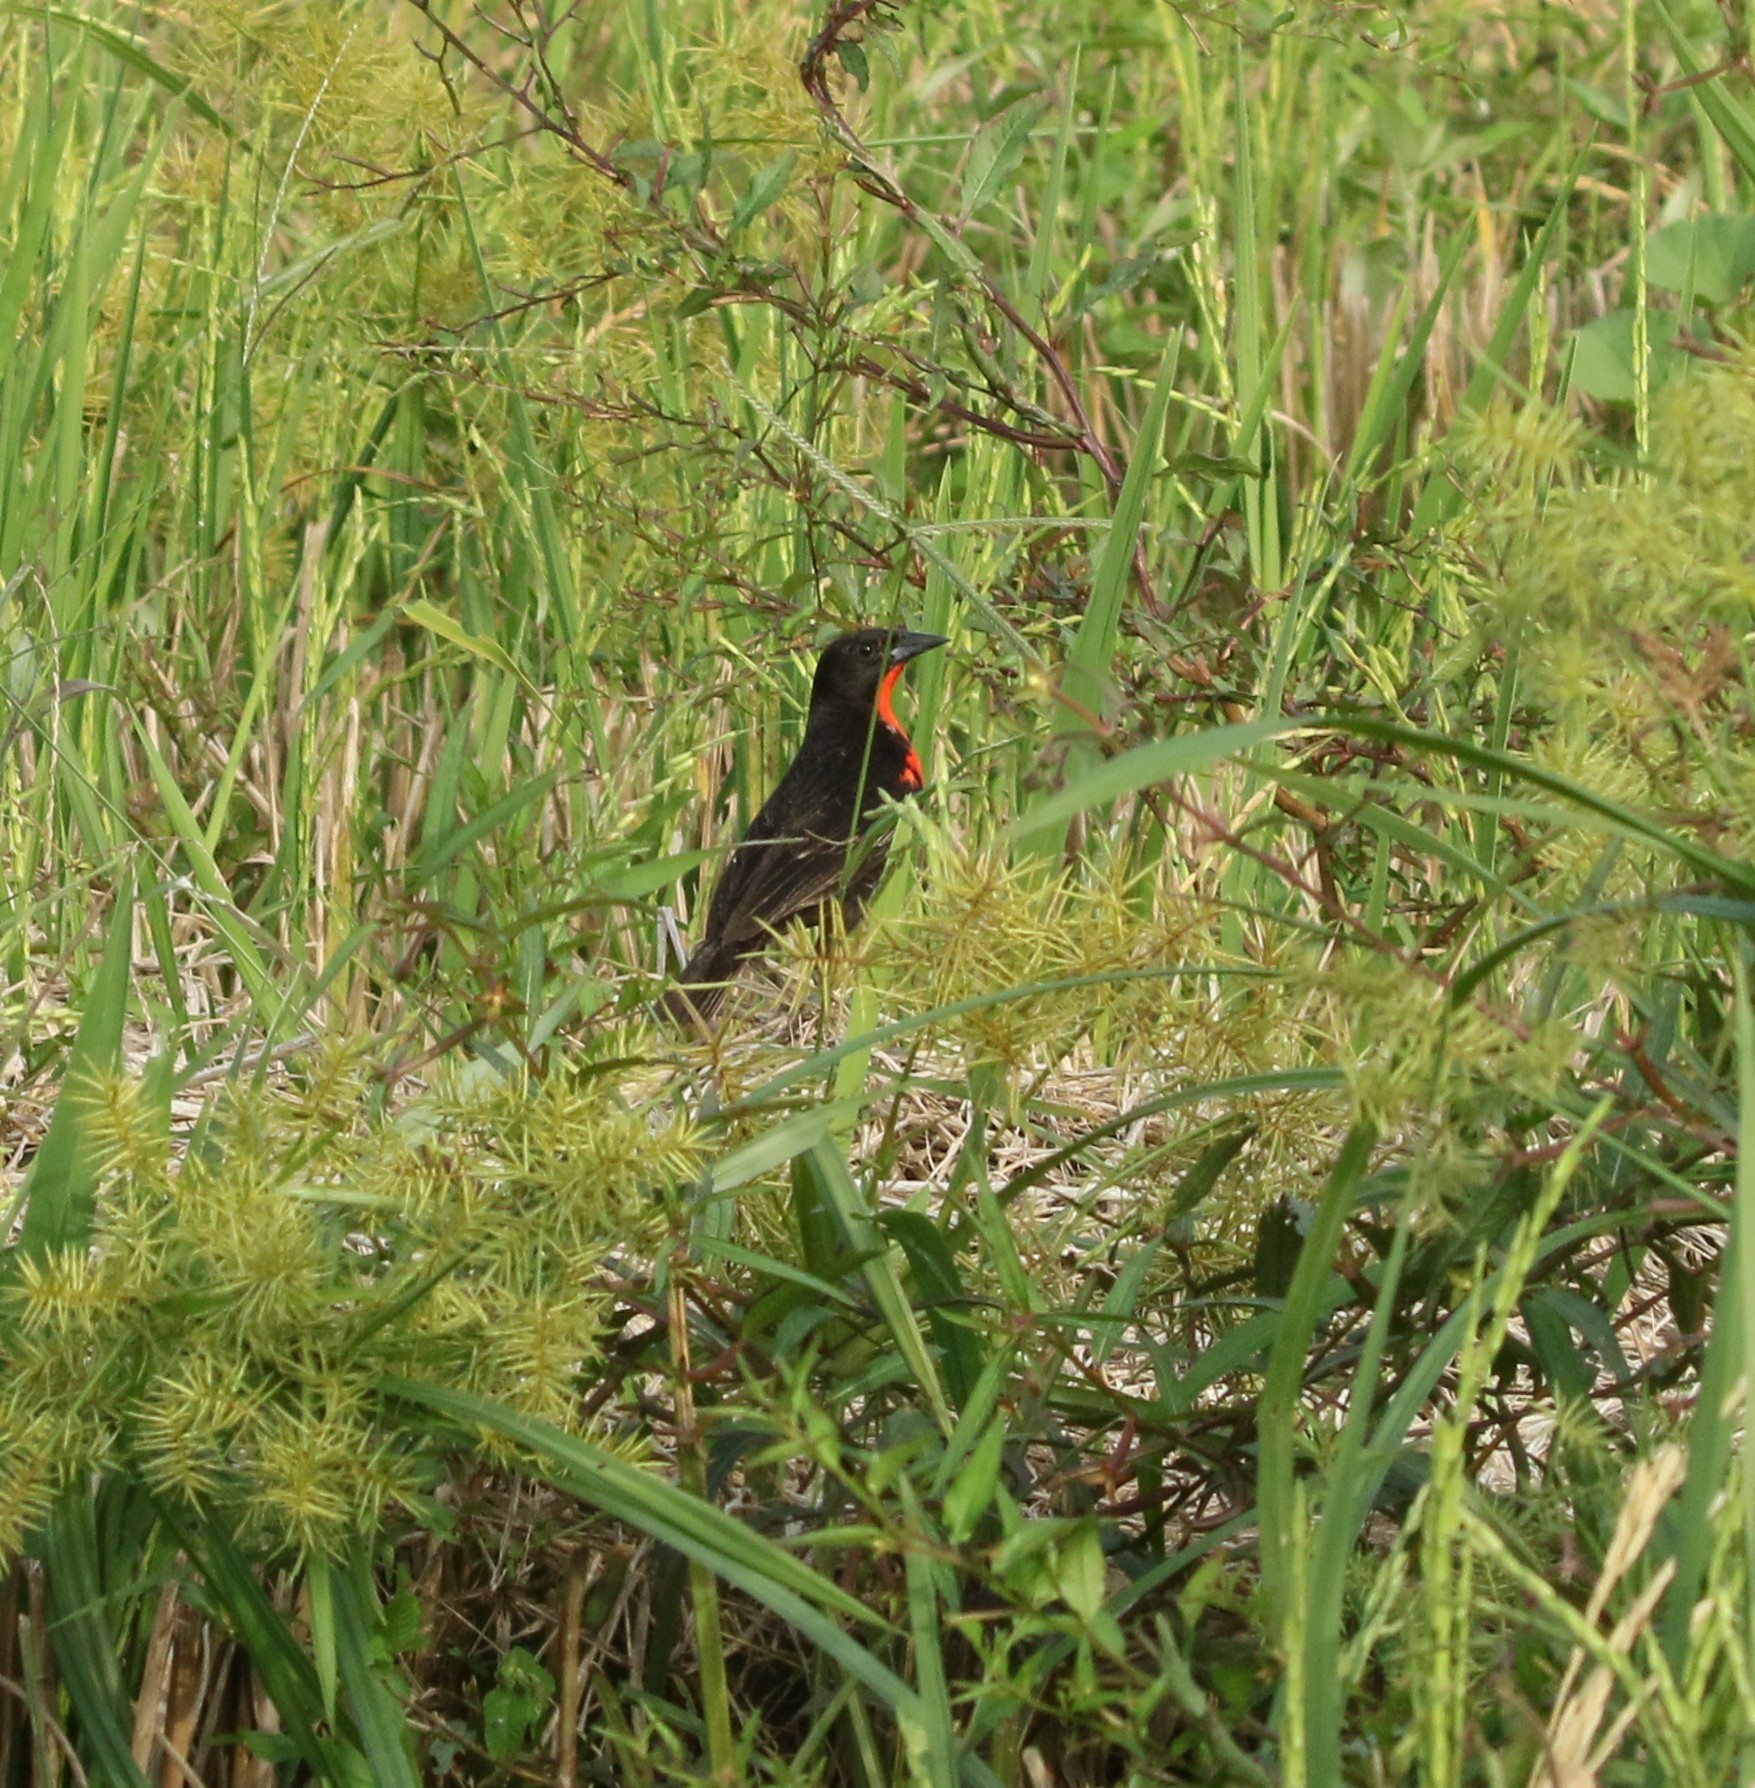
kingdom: Animalia
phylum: Chordata
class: Aves
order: Passeriformes
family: Icteridae
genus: Sturnella
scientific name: Sturnella militaris
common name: Red-breasted blackbird
